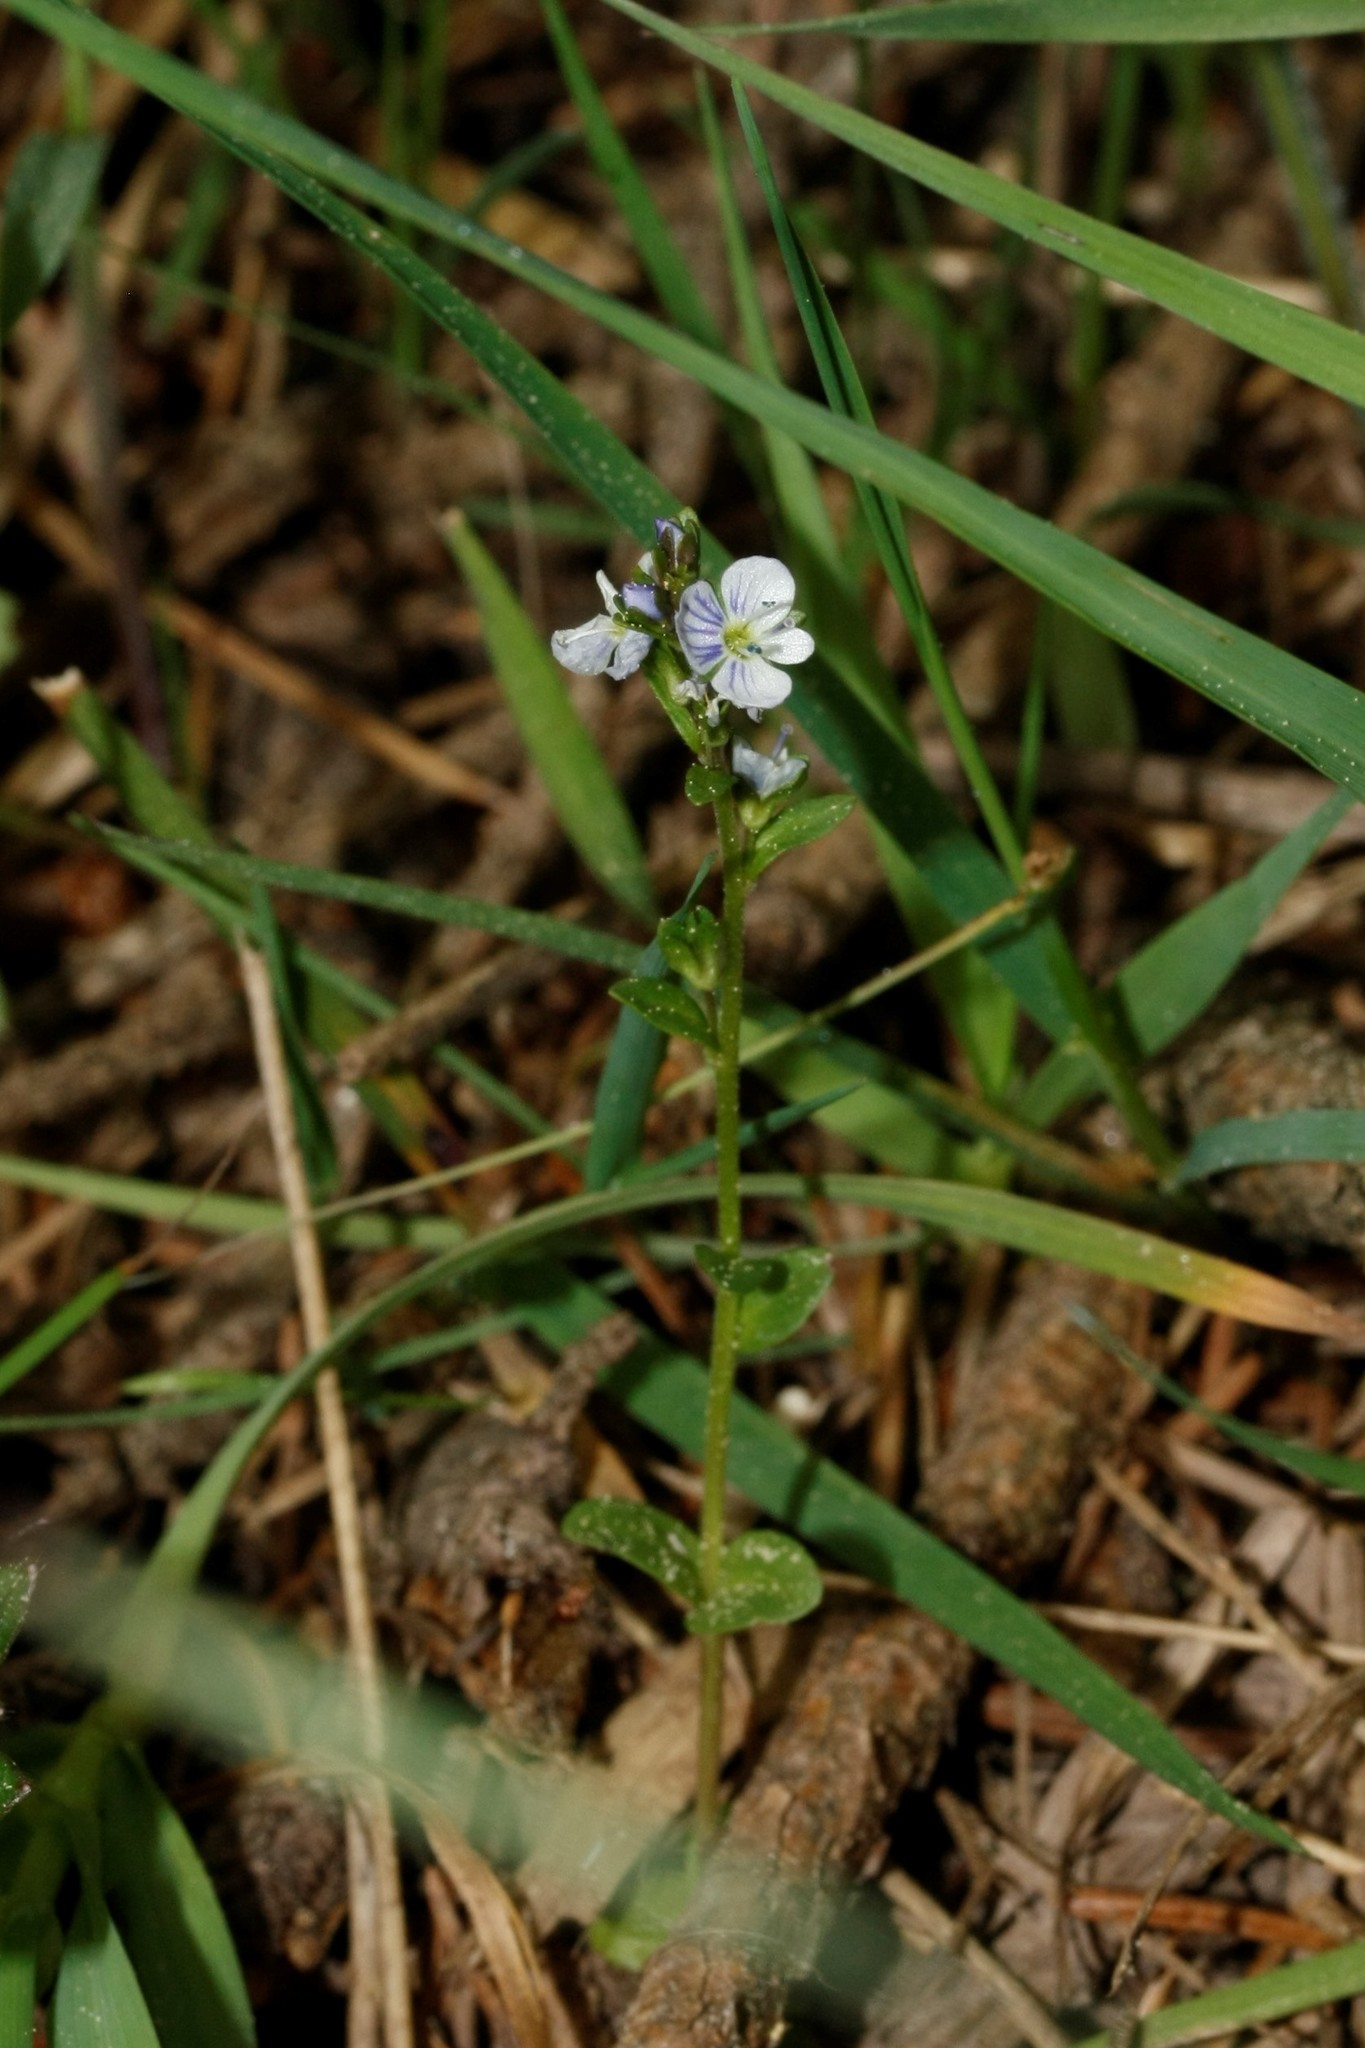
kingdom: Plantae
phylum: Tracheophyta
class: Magnoliopsida
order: Lamiales
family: Plantaginaceae
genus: Veronica
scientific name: Veronica serpyllifolia
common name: Thyme-leaved speedwell
